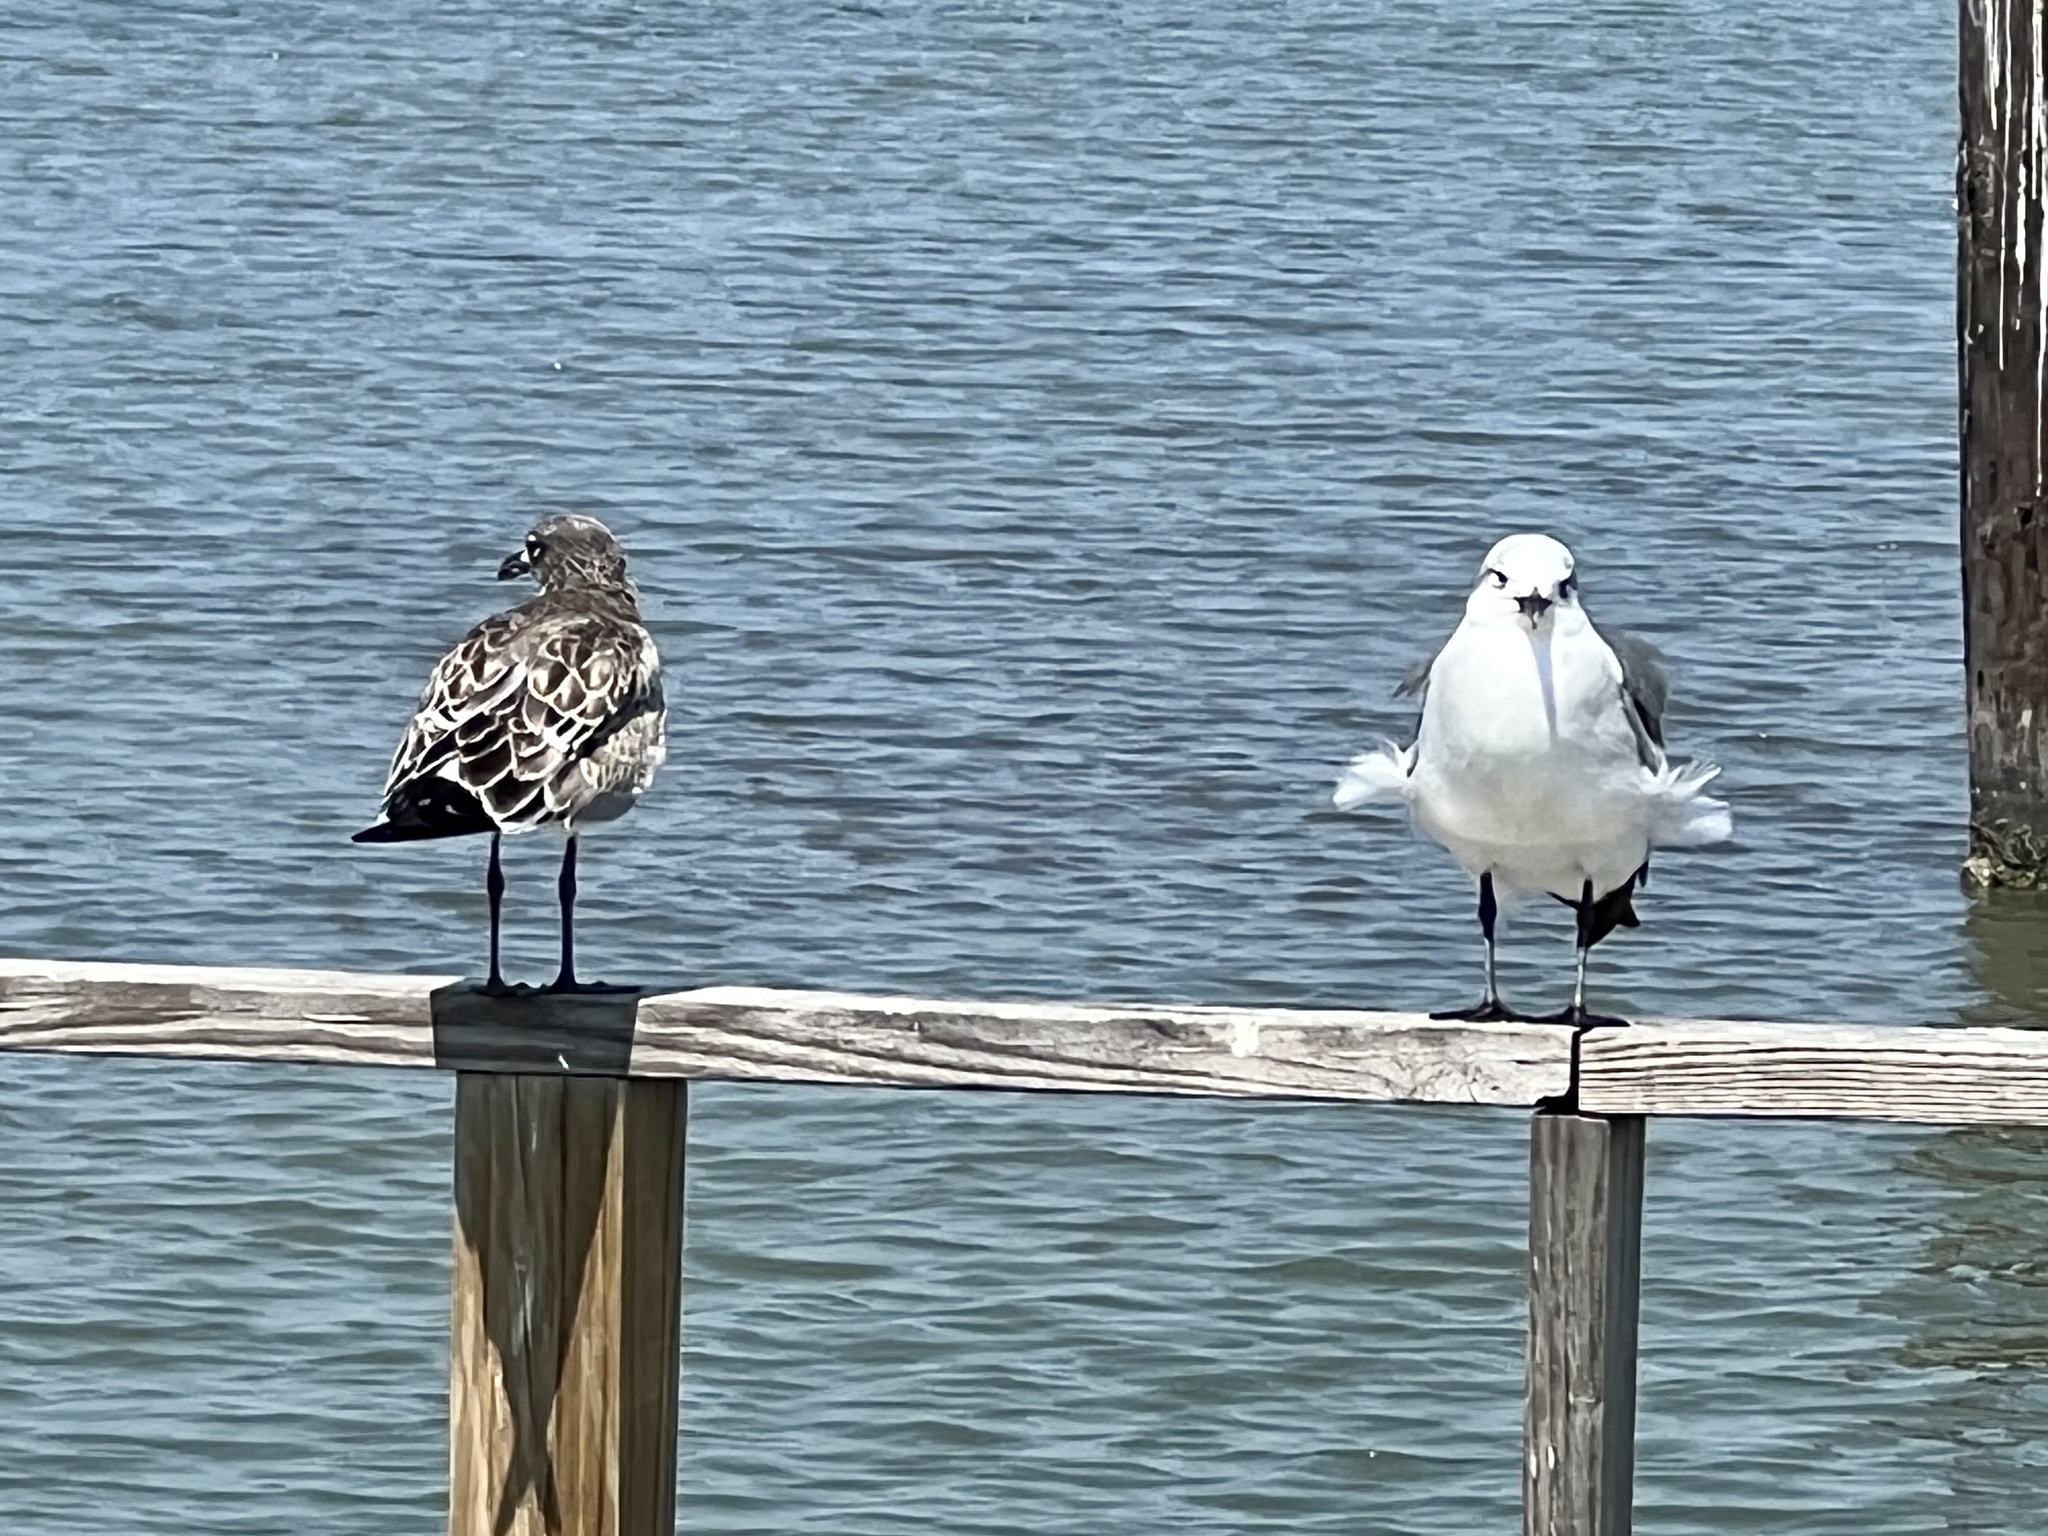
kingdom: Animalia
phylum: Chordata
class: Aves
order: Charadriiformes
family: Laridae
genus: Leucophaeus
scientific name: Leucophaeus atricilla
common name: Laughing gull
